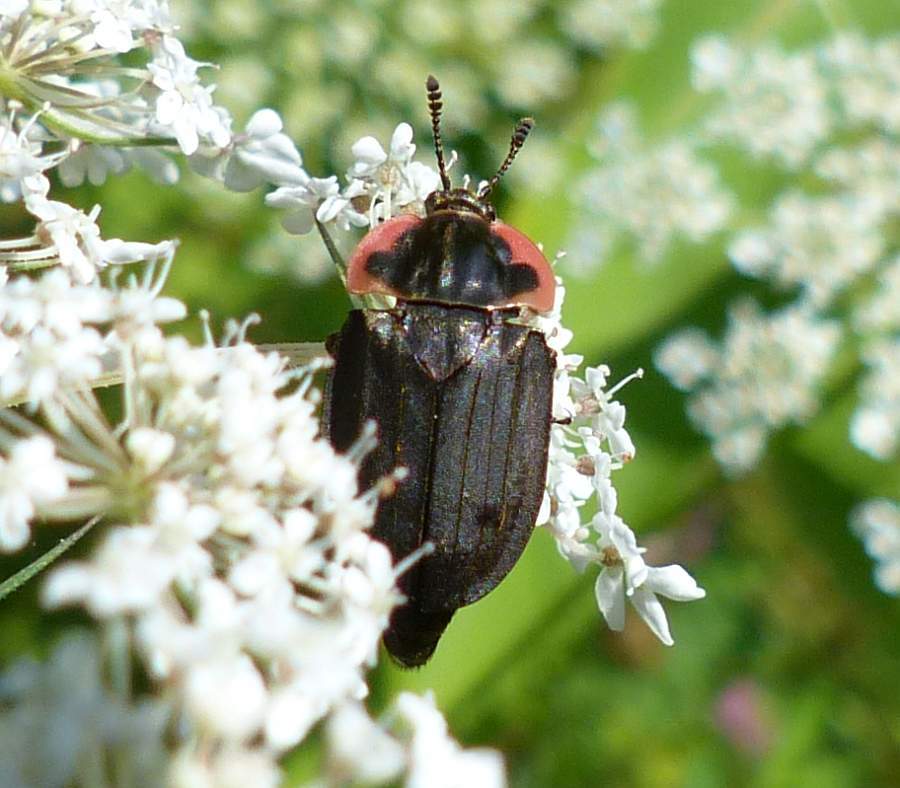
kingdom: Animalia
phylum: Arthropoda
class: Insecta
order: Coleoptera
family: Staphylinidae
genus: Oiceoptoma
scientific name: Oiceoptoma noveboracense
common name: Margined carrion beetle
